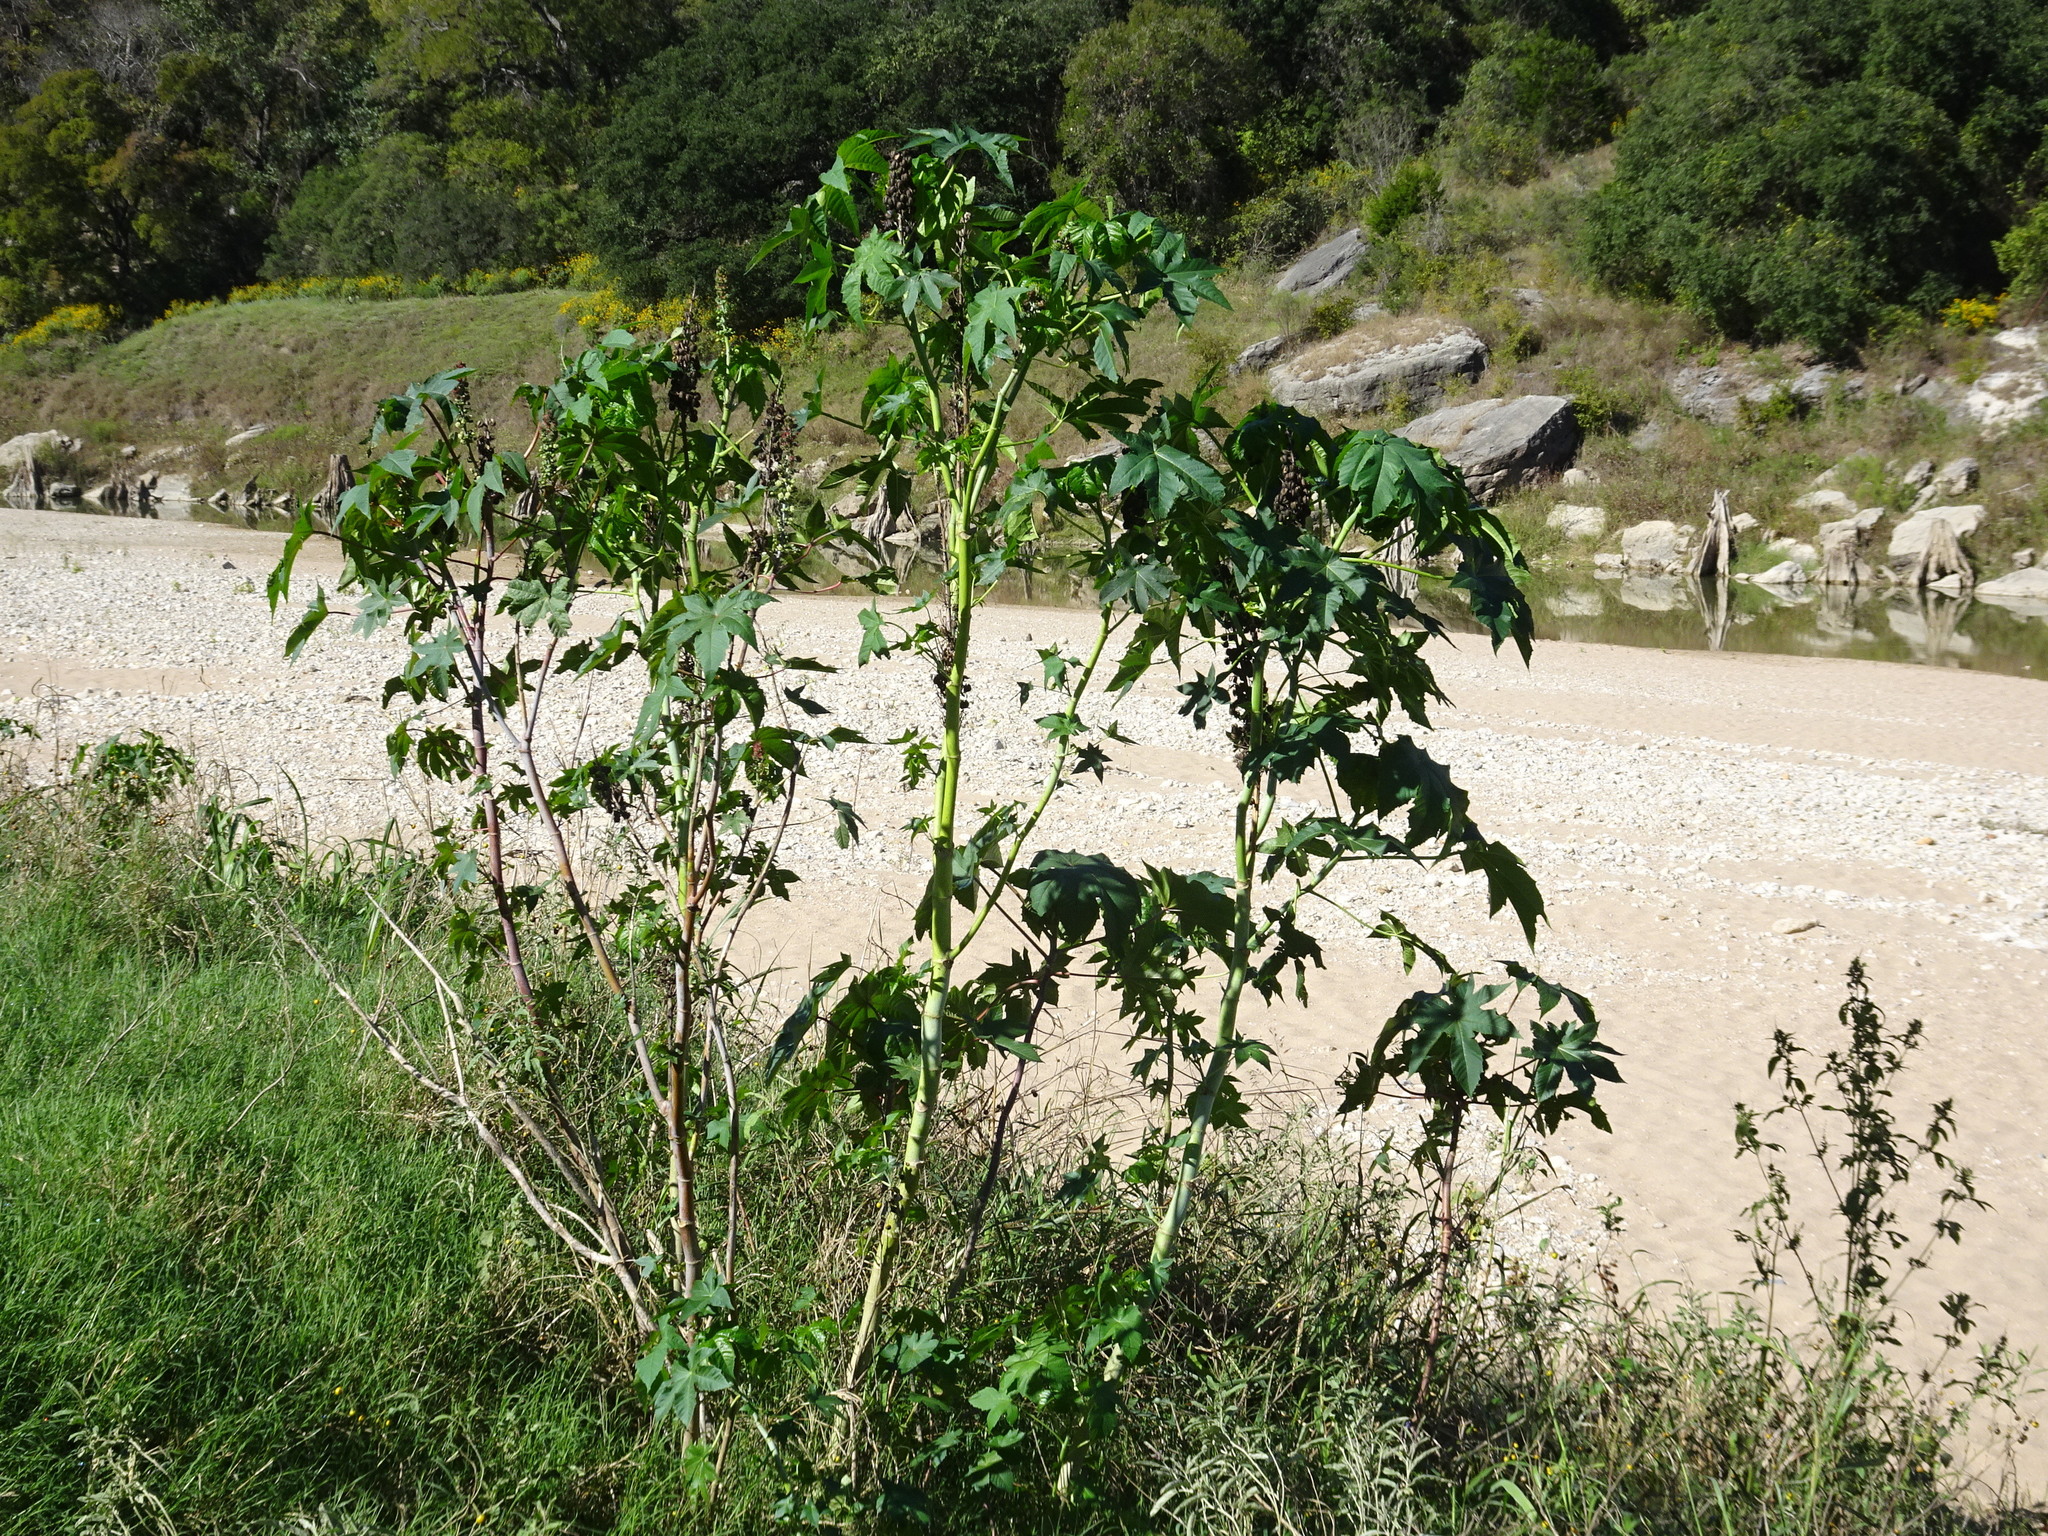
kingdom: Plantae
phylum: Tracheophyta
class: Magnoliopsida
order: Malpighiales
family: Euphorbiaceae
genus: Ricinus
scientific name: Ricinus communis
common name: Castor-oil-plant
